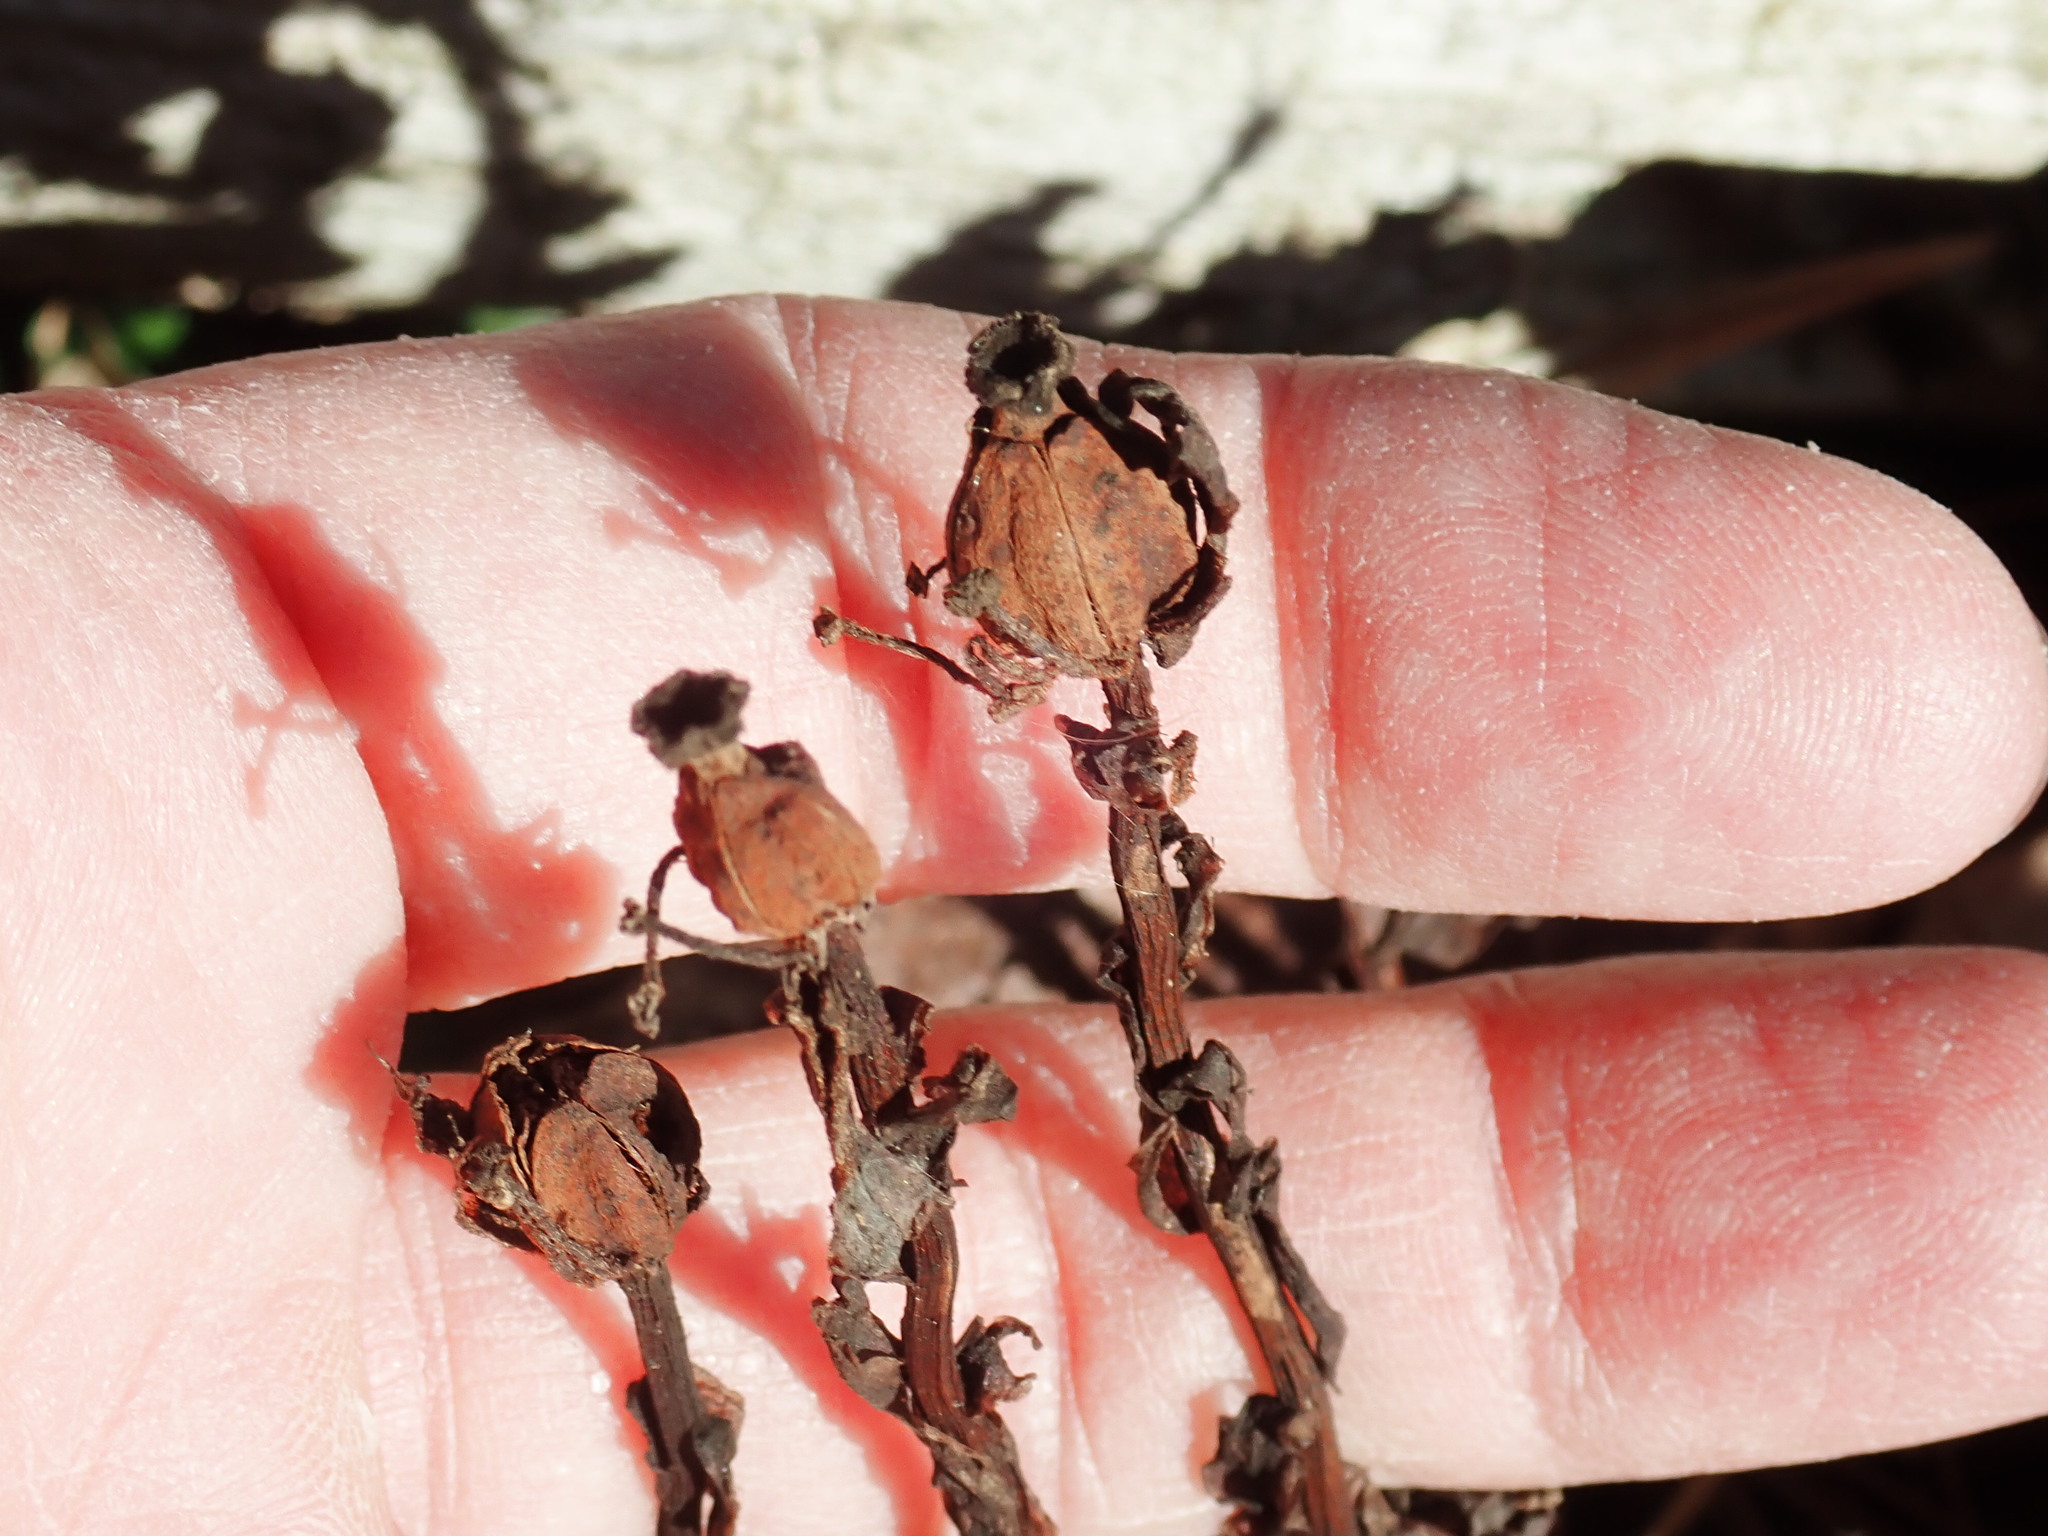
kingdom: Plantae
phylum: Tracheophyta
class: Magnoliopsida
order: Ericales
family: Ericaceae
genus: Monotropa
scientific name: Monotropa uniflora
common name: Convulsion root
